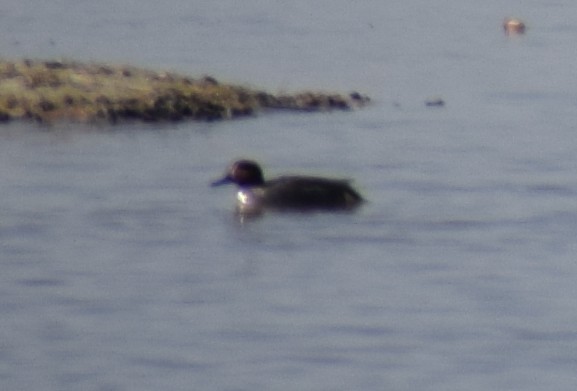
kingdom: Animalia
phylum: Chordata
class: Aves
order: Anseriformes
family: Anatidae
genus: Anas
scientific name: Anas crecca
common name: Eurasian teal
